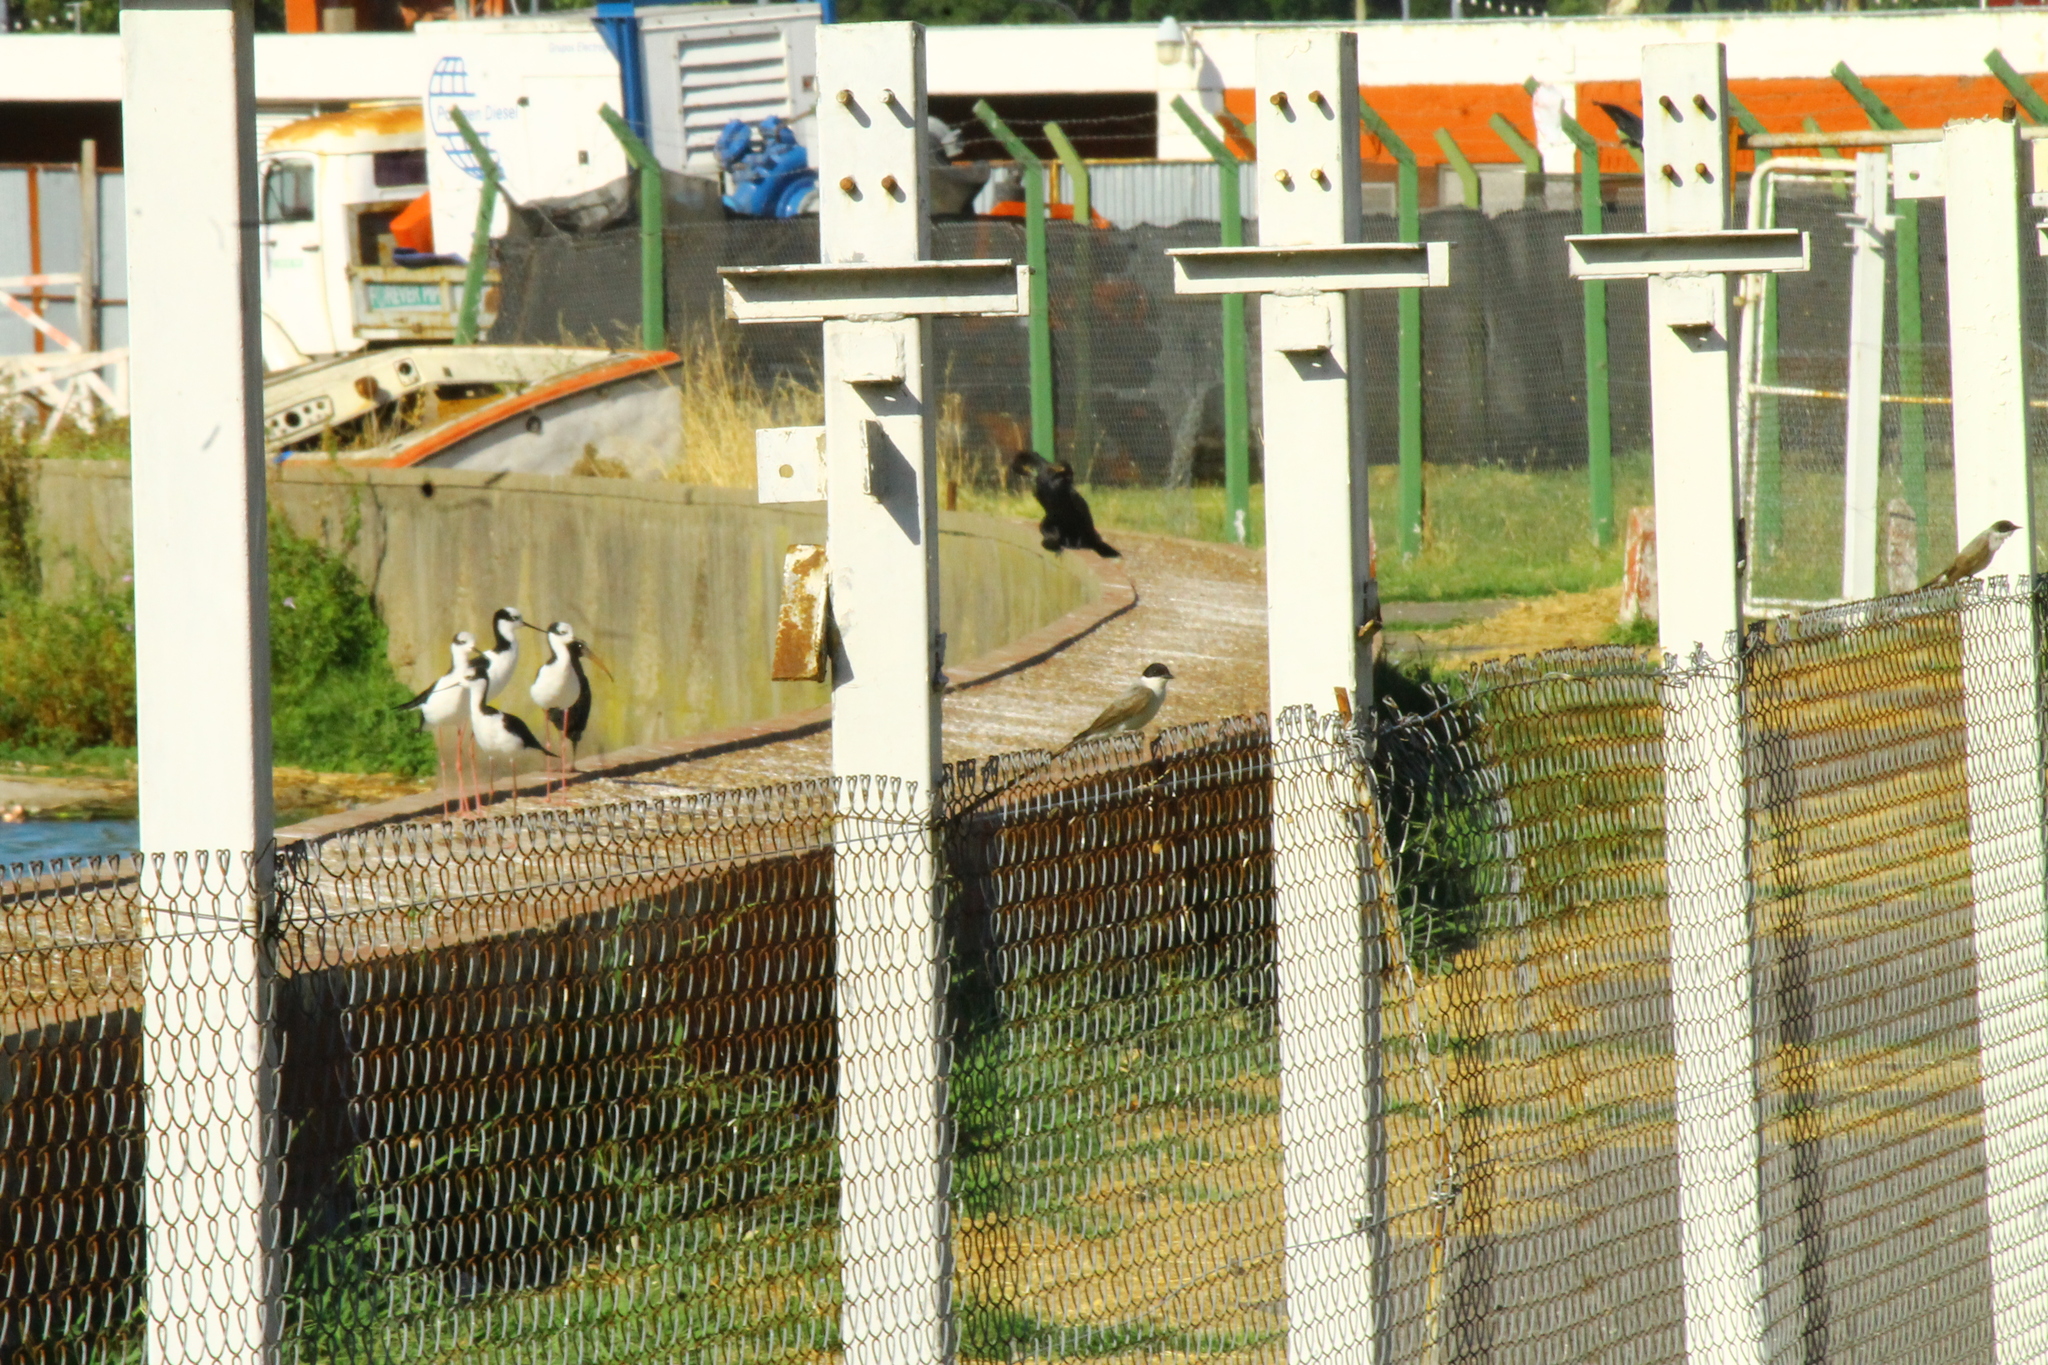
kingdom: Animalia
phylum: Chordata
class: Aves
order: Passeriformes
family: Tyrannidae
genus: Tyrannus
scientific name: Tyrannus savana
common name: Fork-tailed flycatcher
